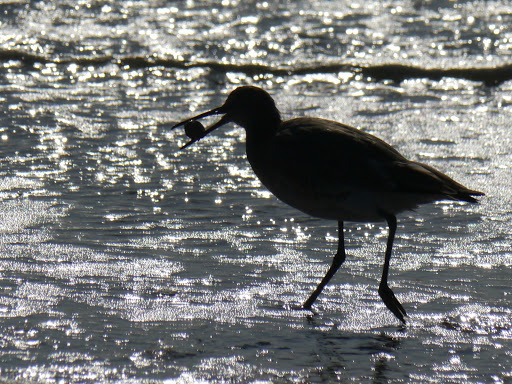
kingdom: Animalia
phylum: Chordata
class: Aves
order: Charadriiformes
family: Scolopacidae
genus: Tringa
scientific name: Tringa semipalmata
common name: Willet
